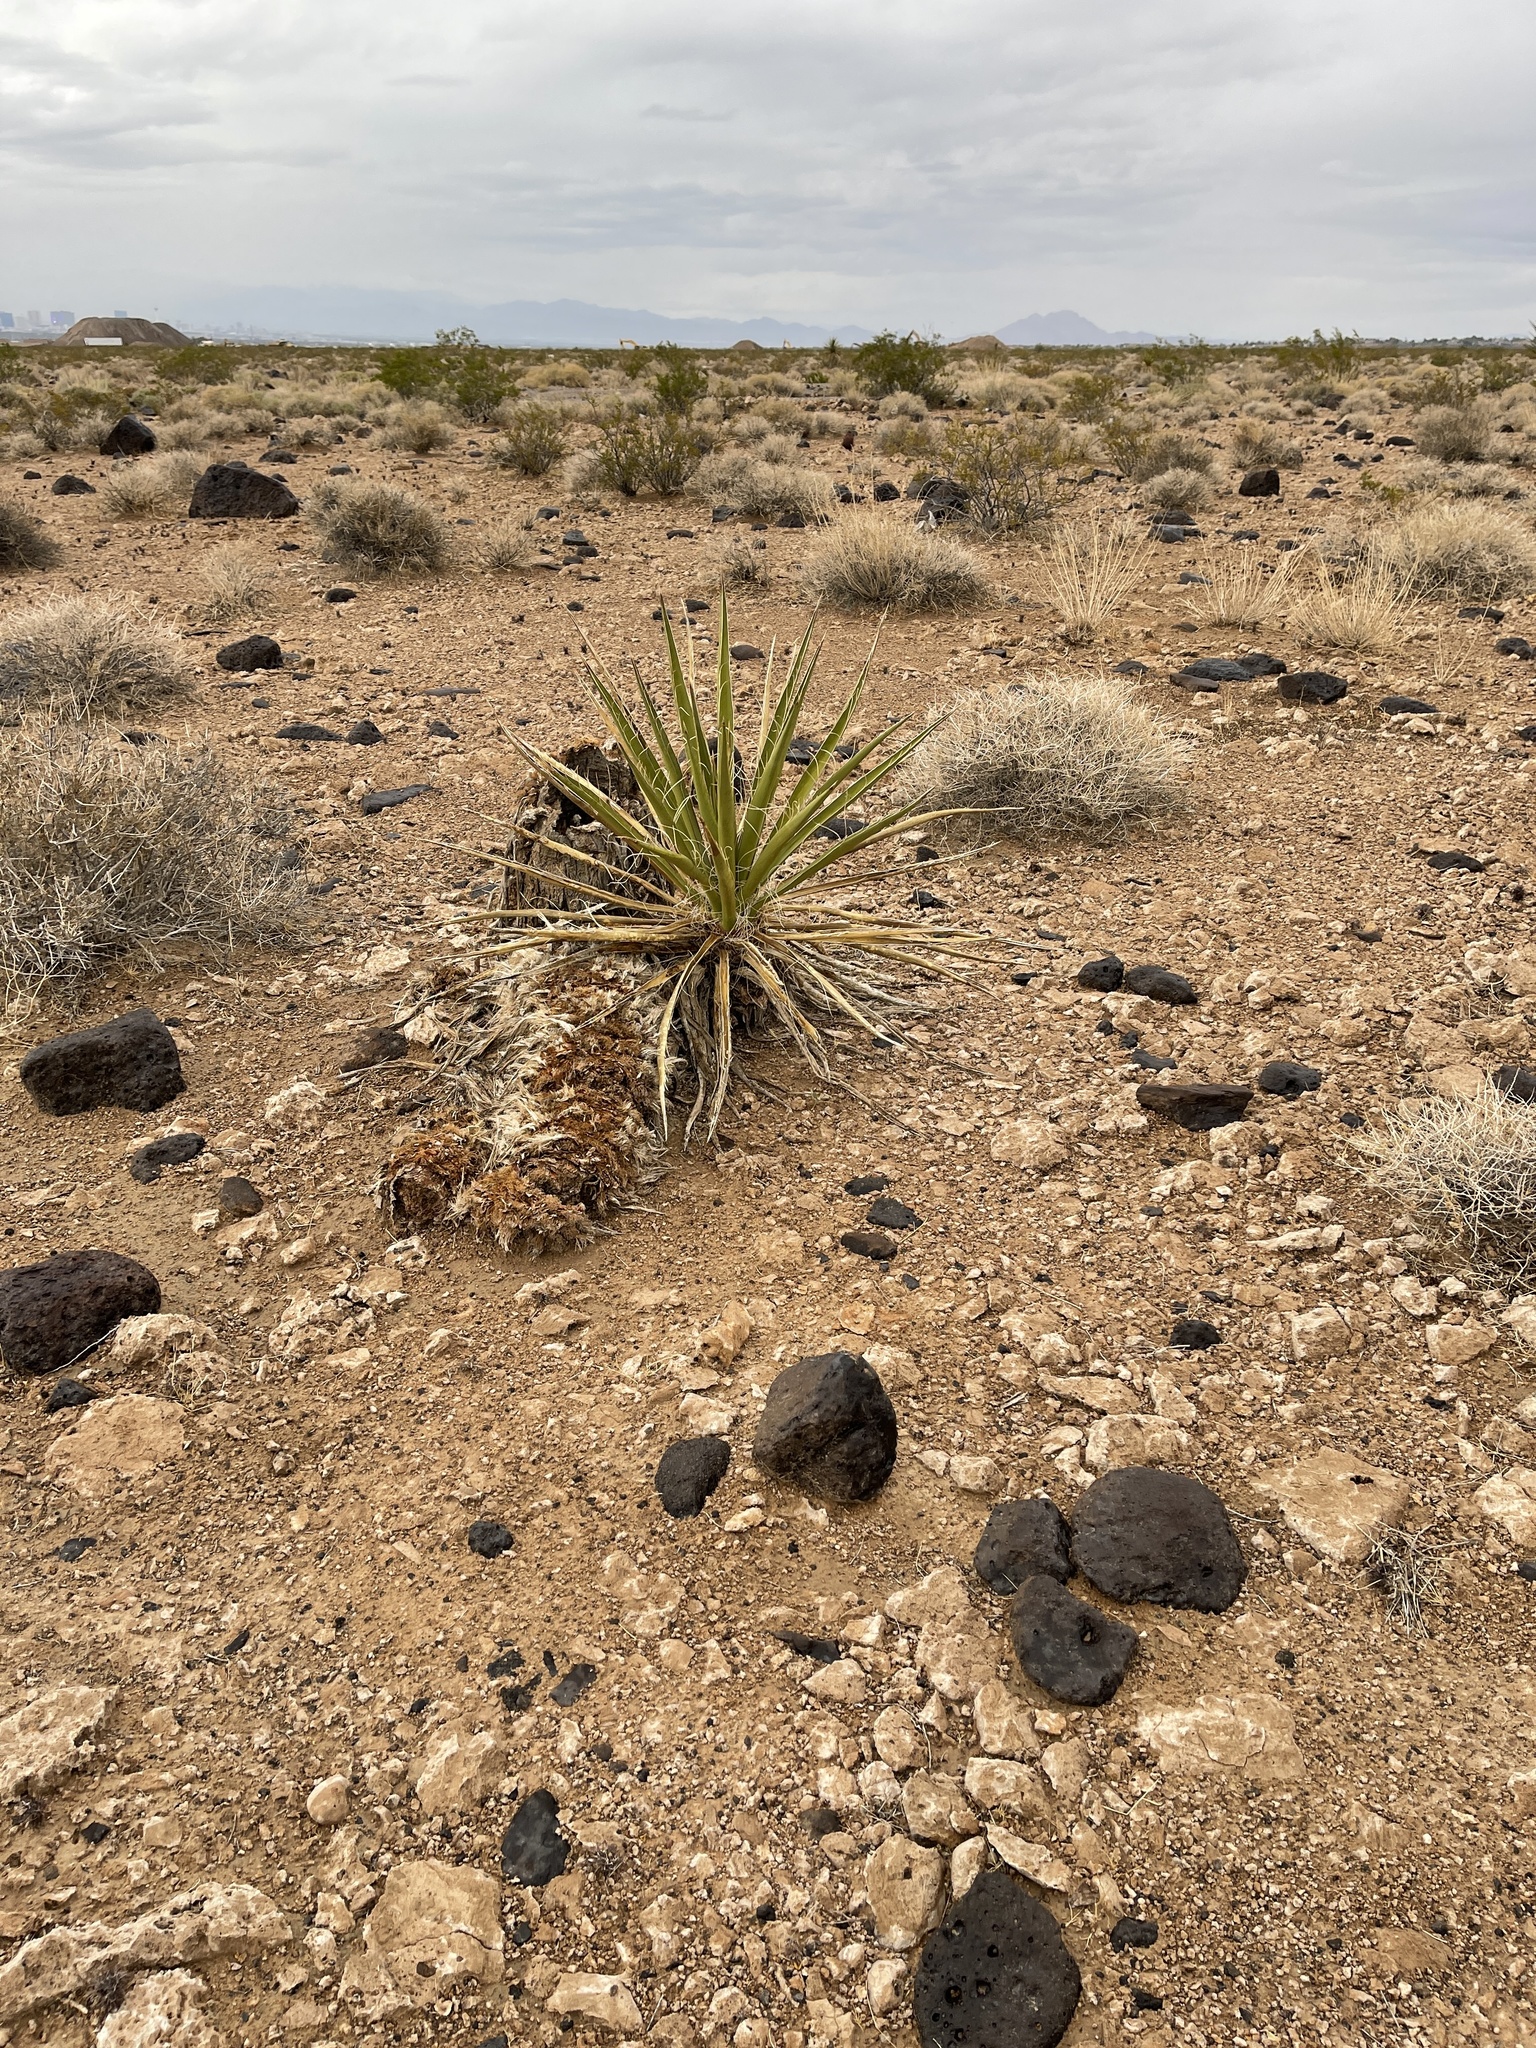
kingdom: Plantae
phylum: Tracheophyta
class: Liliopsida
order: Asparagales
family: Asparagaceae
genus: Yucca
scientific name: Yucca schidigera
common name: Mojave yucca
